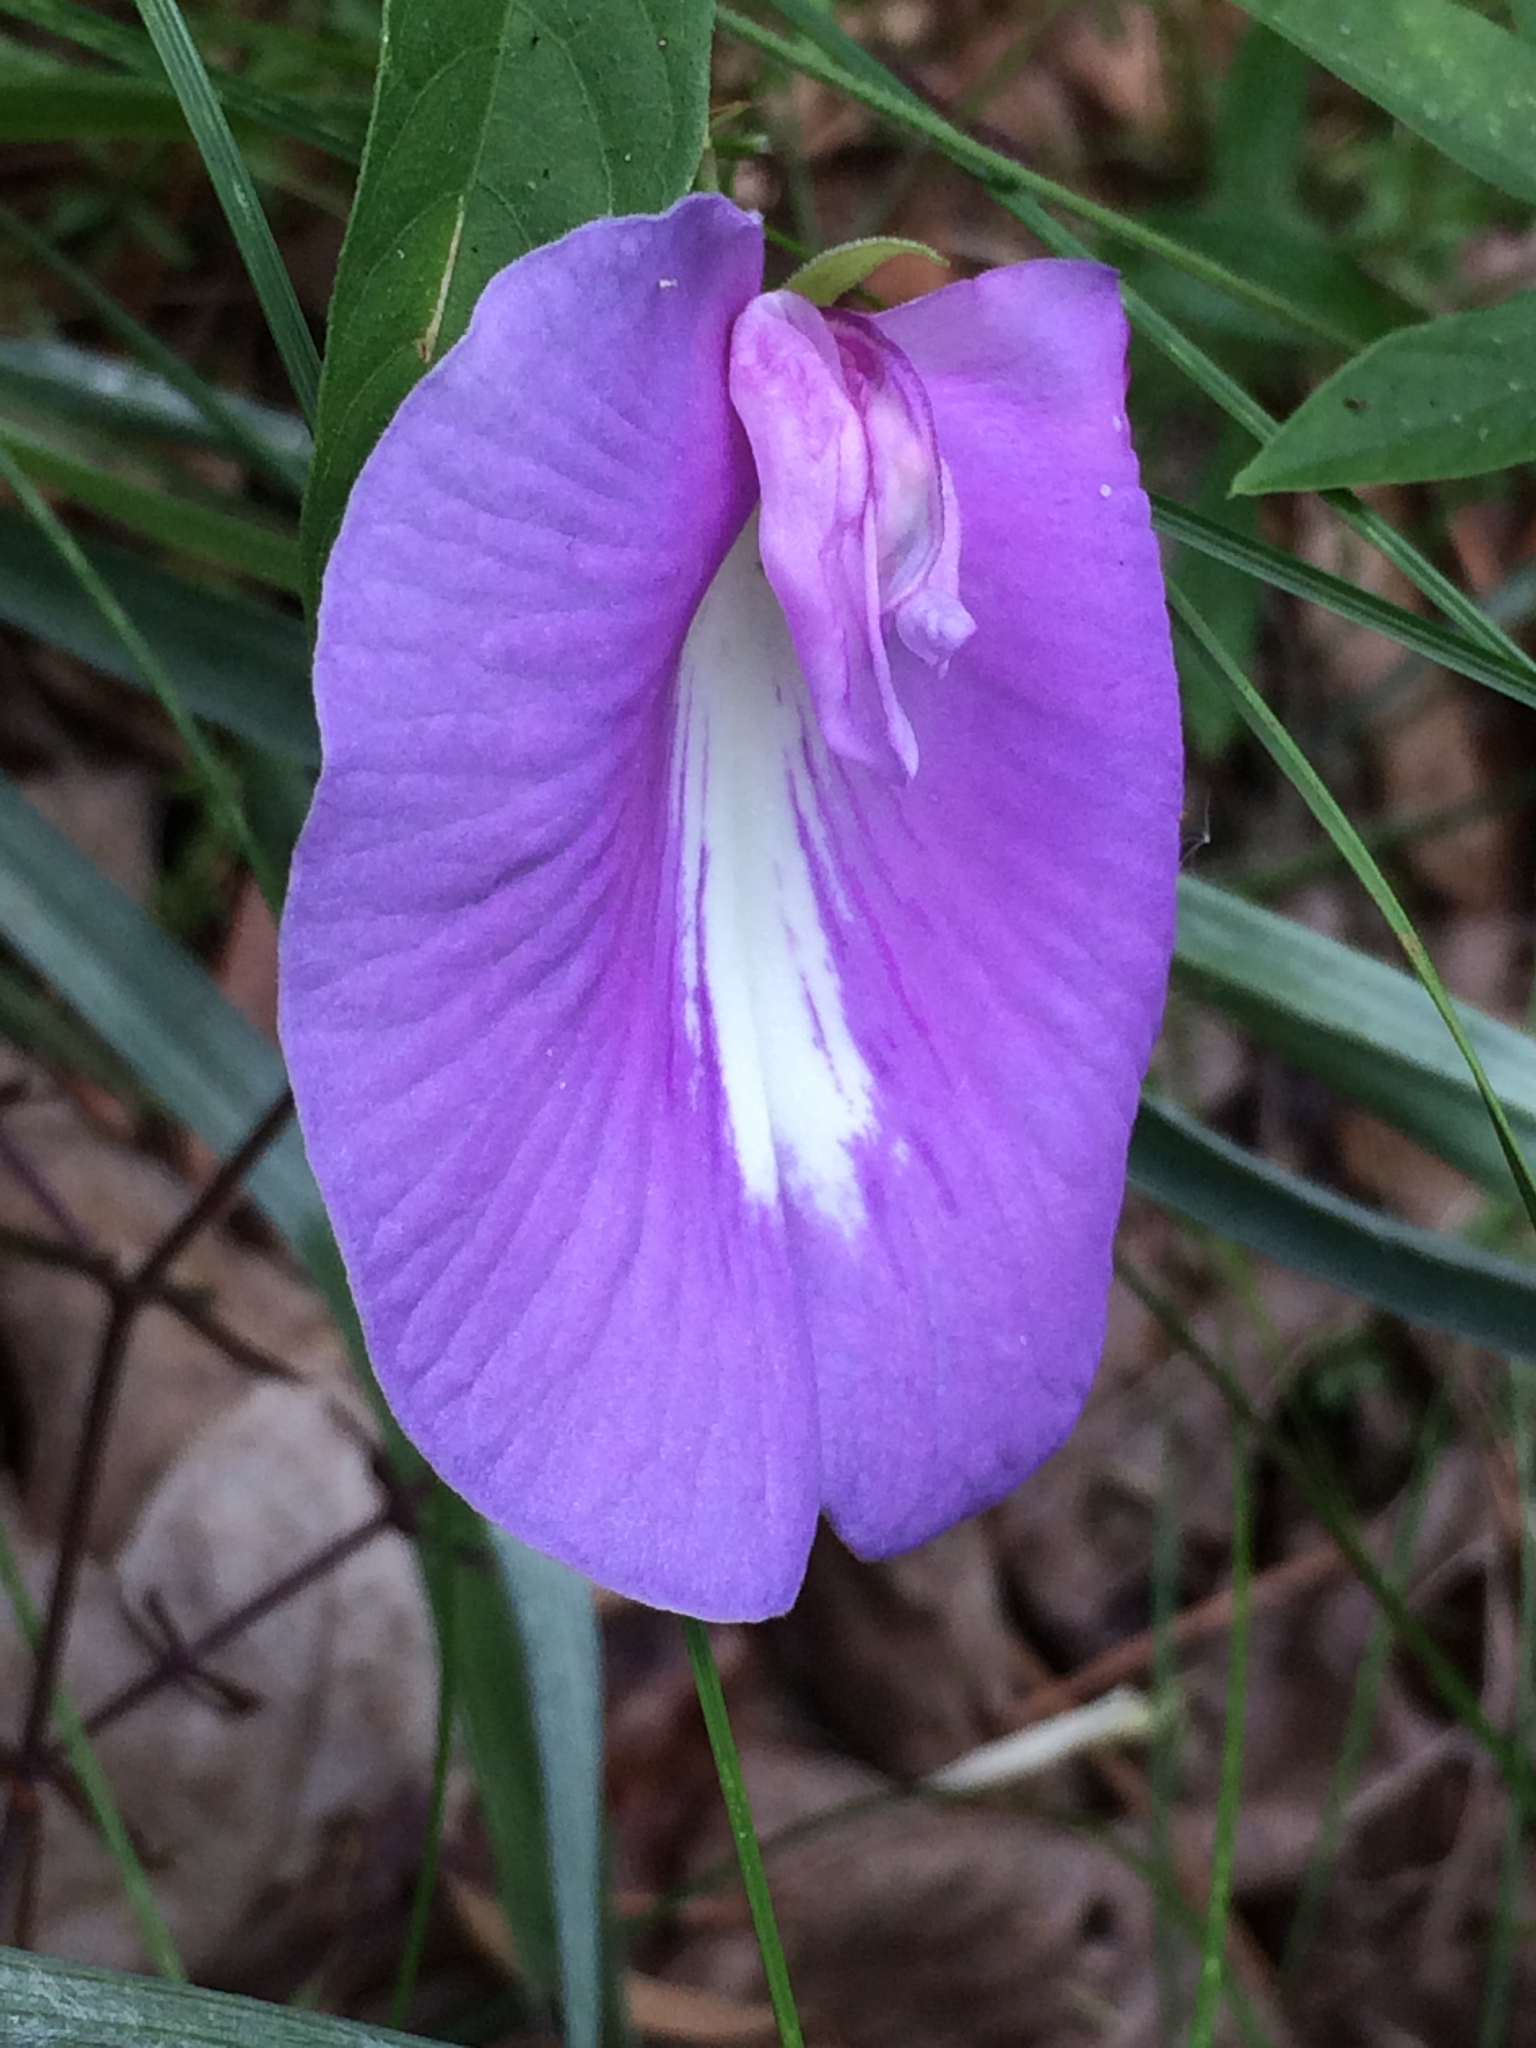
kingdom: Plantae
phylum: Tracheophyta
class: Magnoliopsida
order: Fabales
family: Fabaceae
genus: Centrosema
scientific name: Centrosema virginianum
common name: Butterfly-pea
